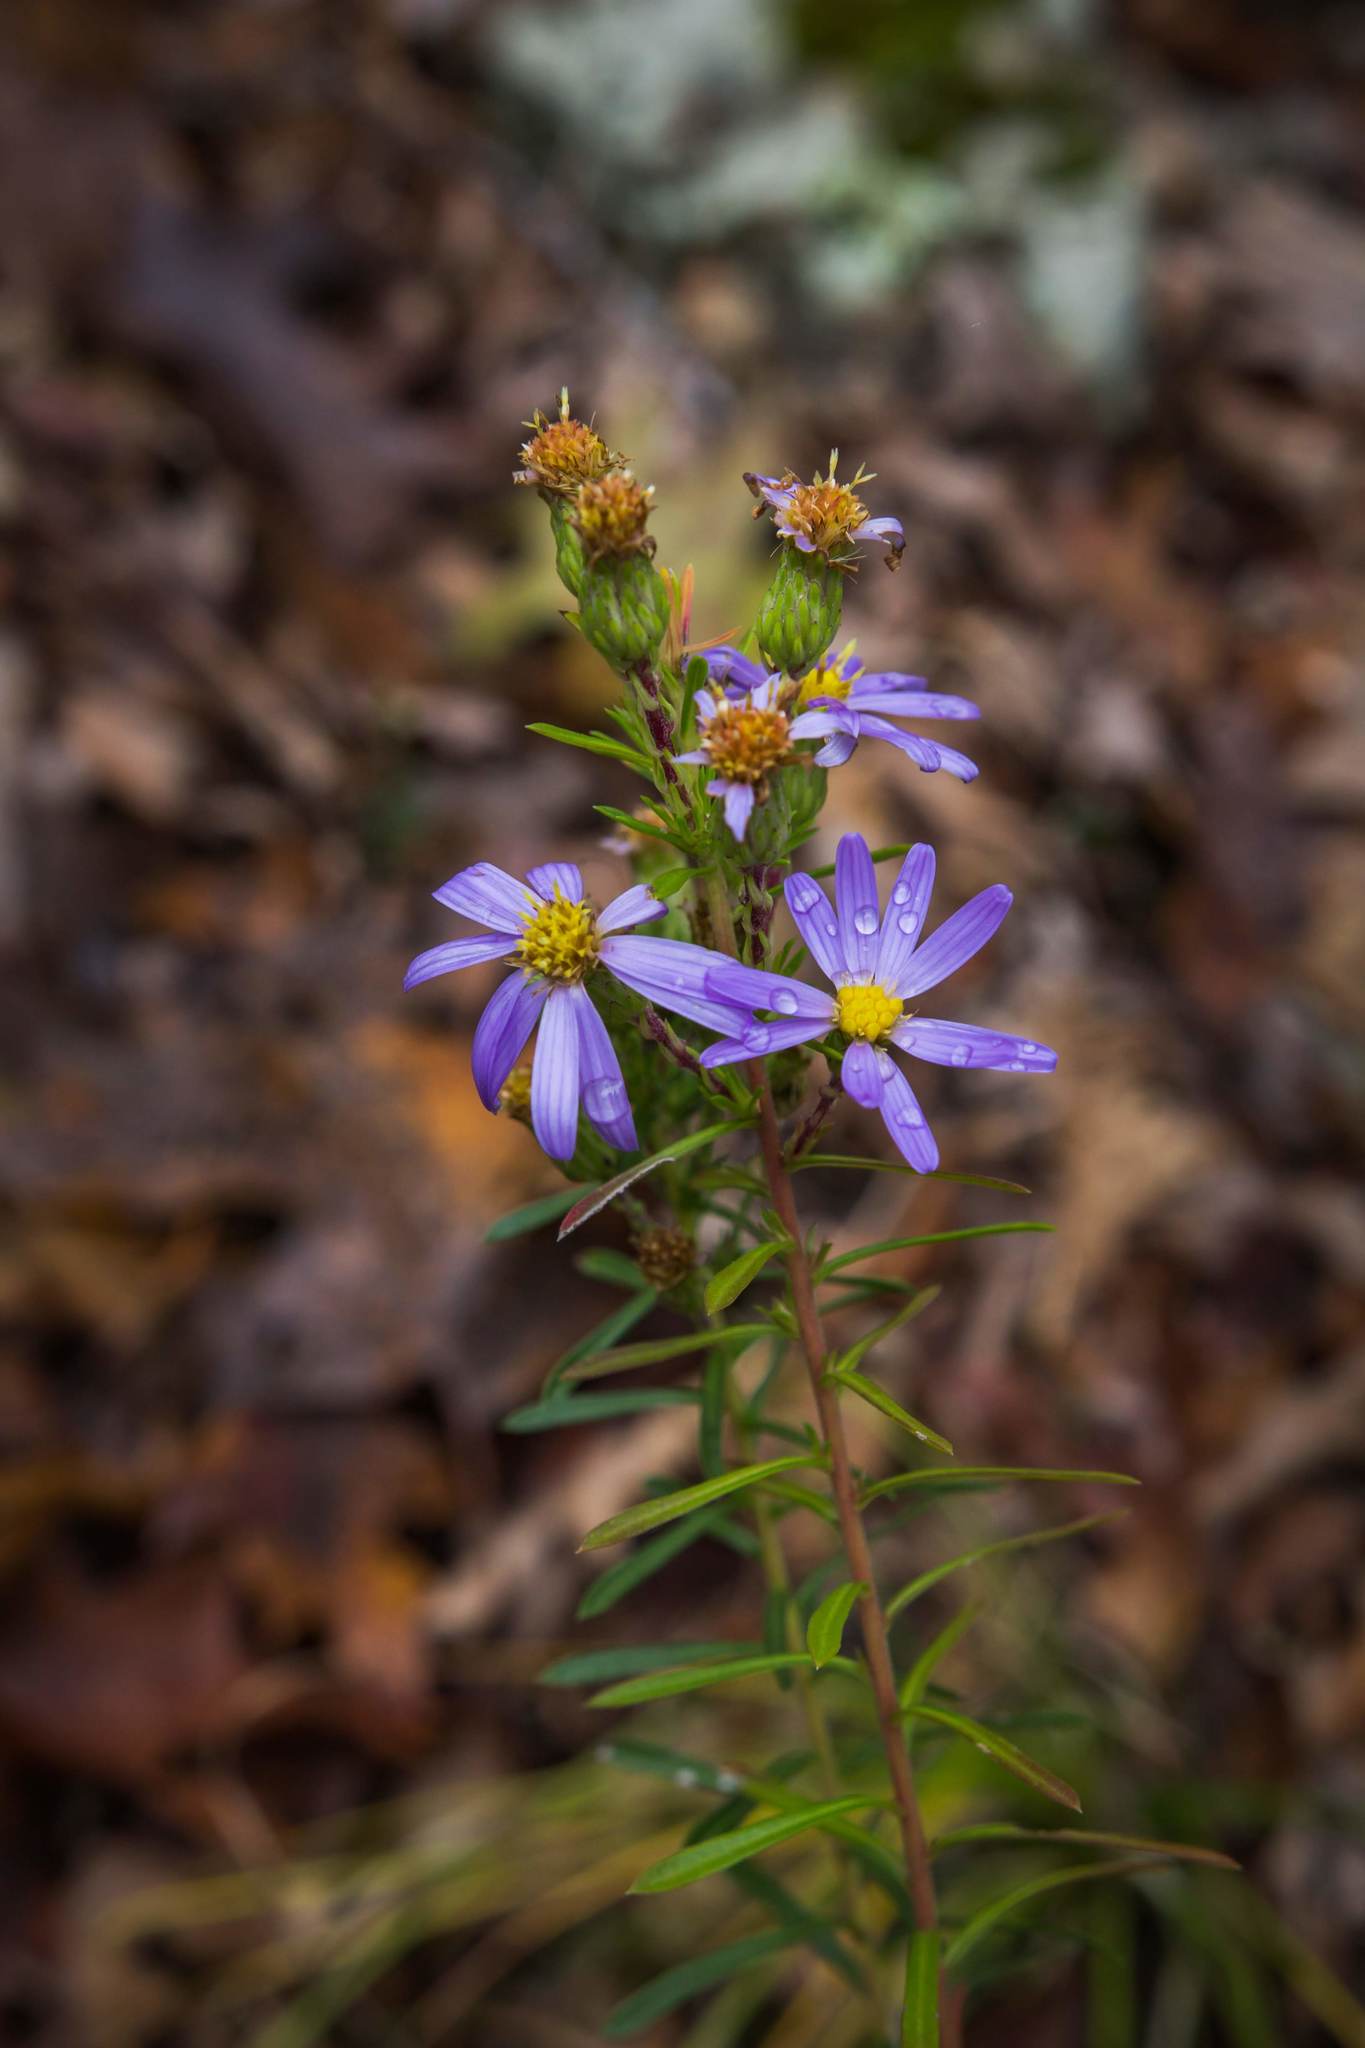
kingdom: Plantae
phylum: Tracheophyta
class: Magnoliopsida
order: Asterales
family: Asteraceae
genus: Ionactis
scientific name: Ionactis linariifolia
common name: Flax-leaf aster
